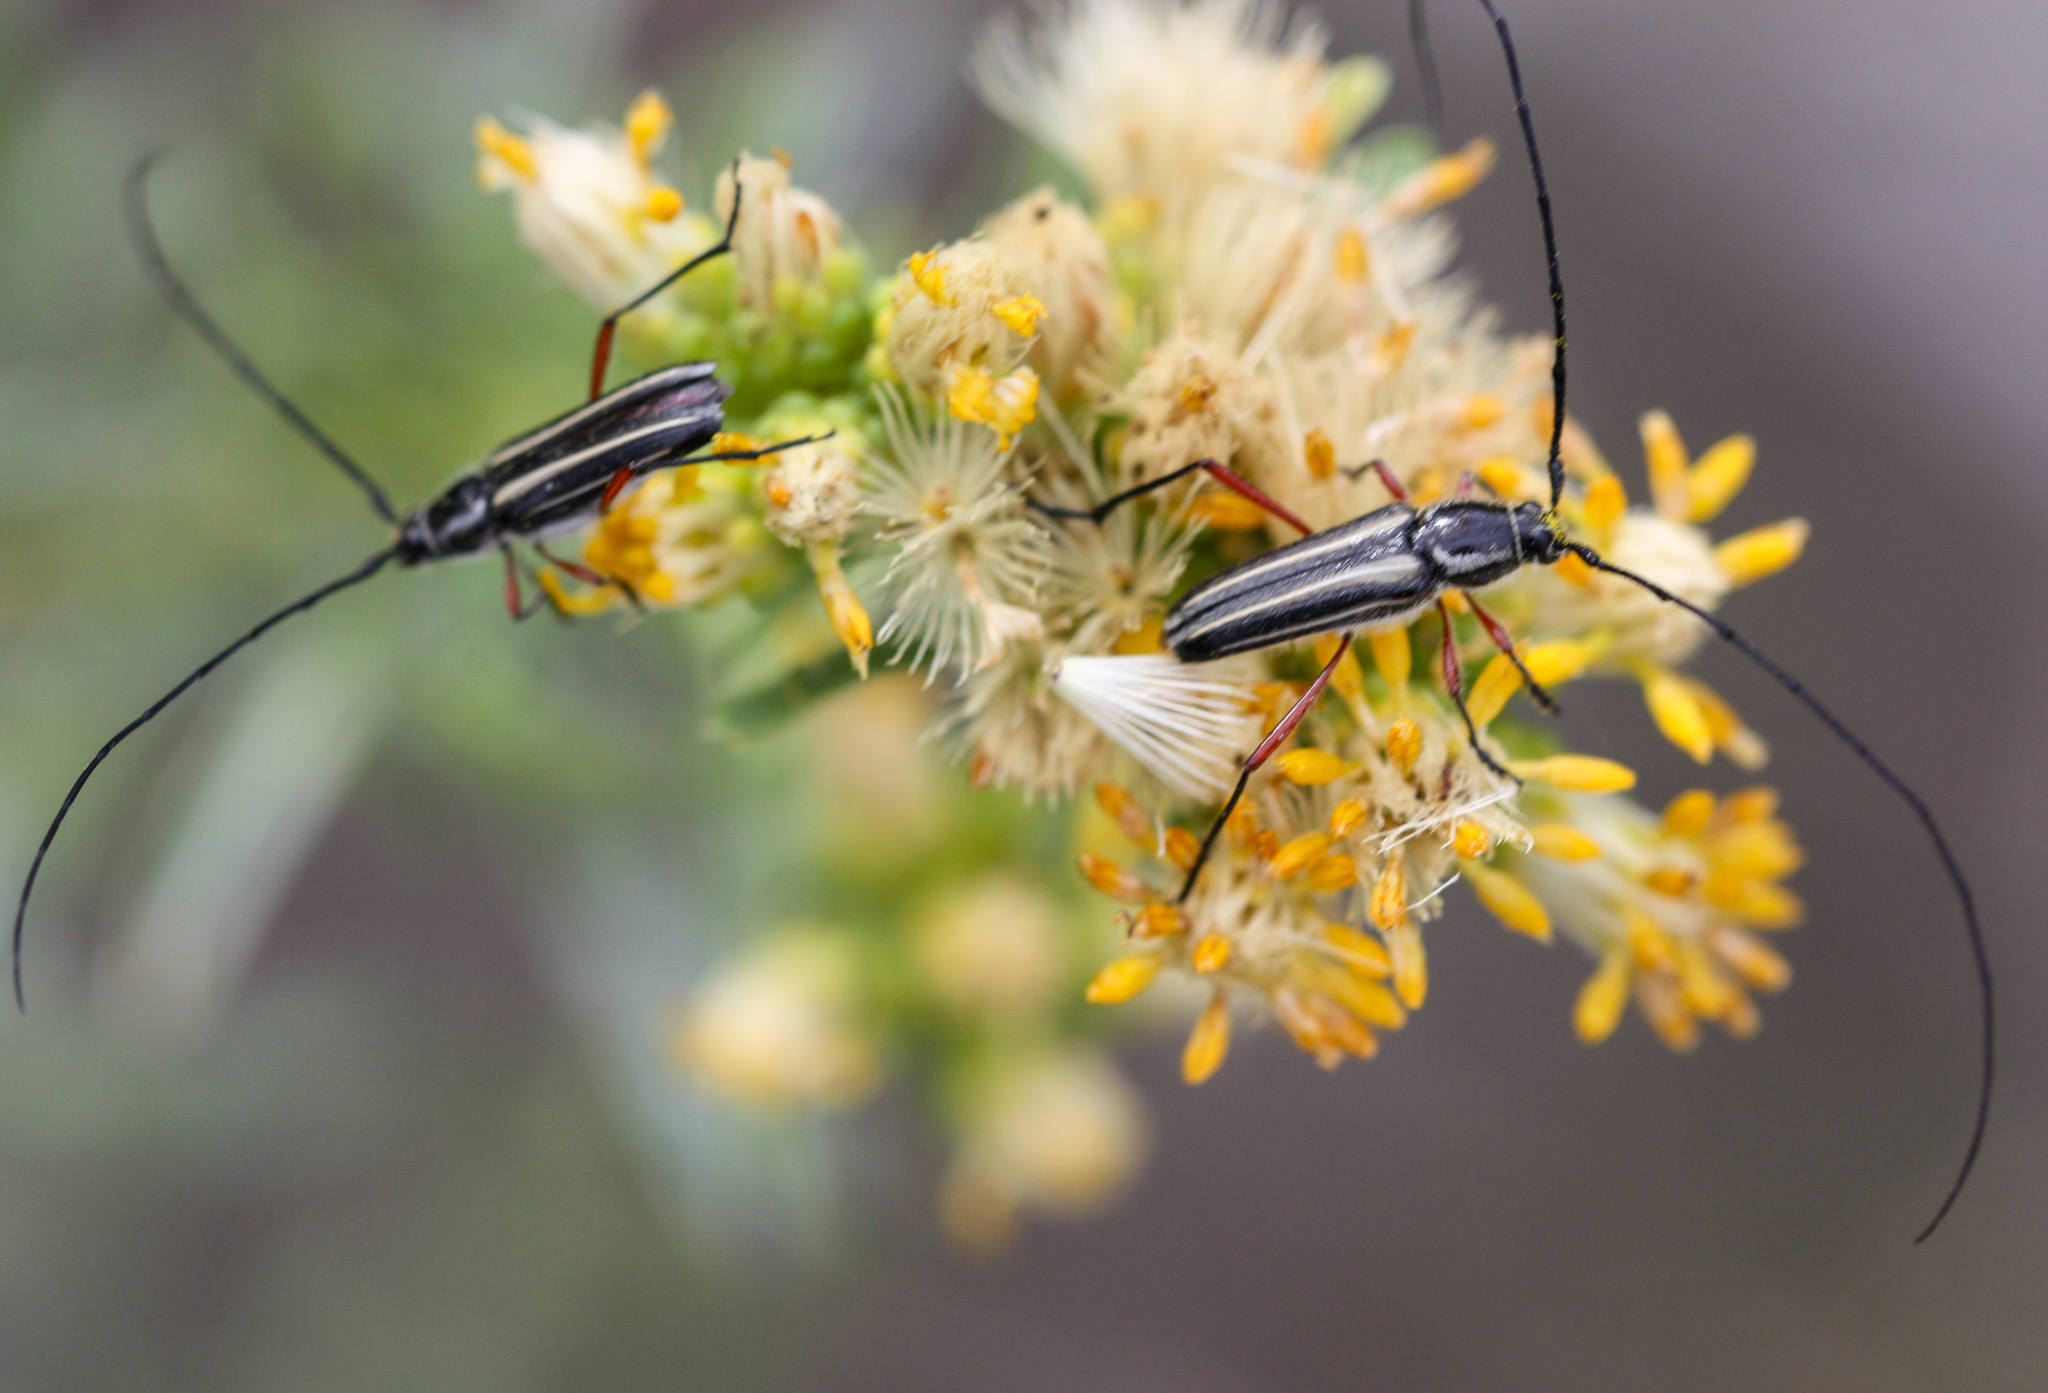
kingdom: Animalia
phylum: Arthropoda
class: Insecta
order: Coleoptera
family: Cerambycidae
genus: Sphaenothecus
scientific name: Sphaenothecus bilineatus
